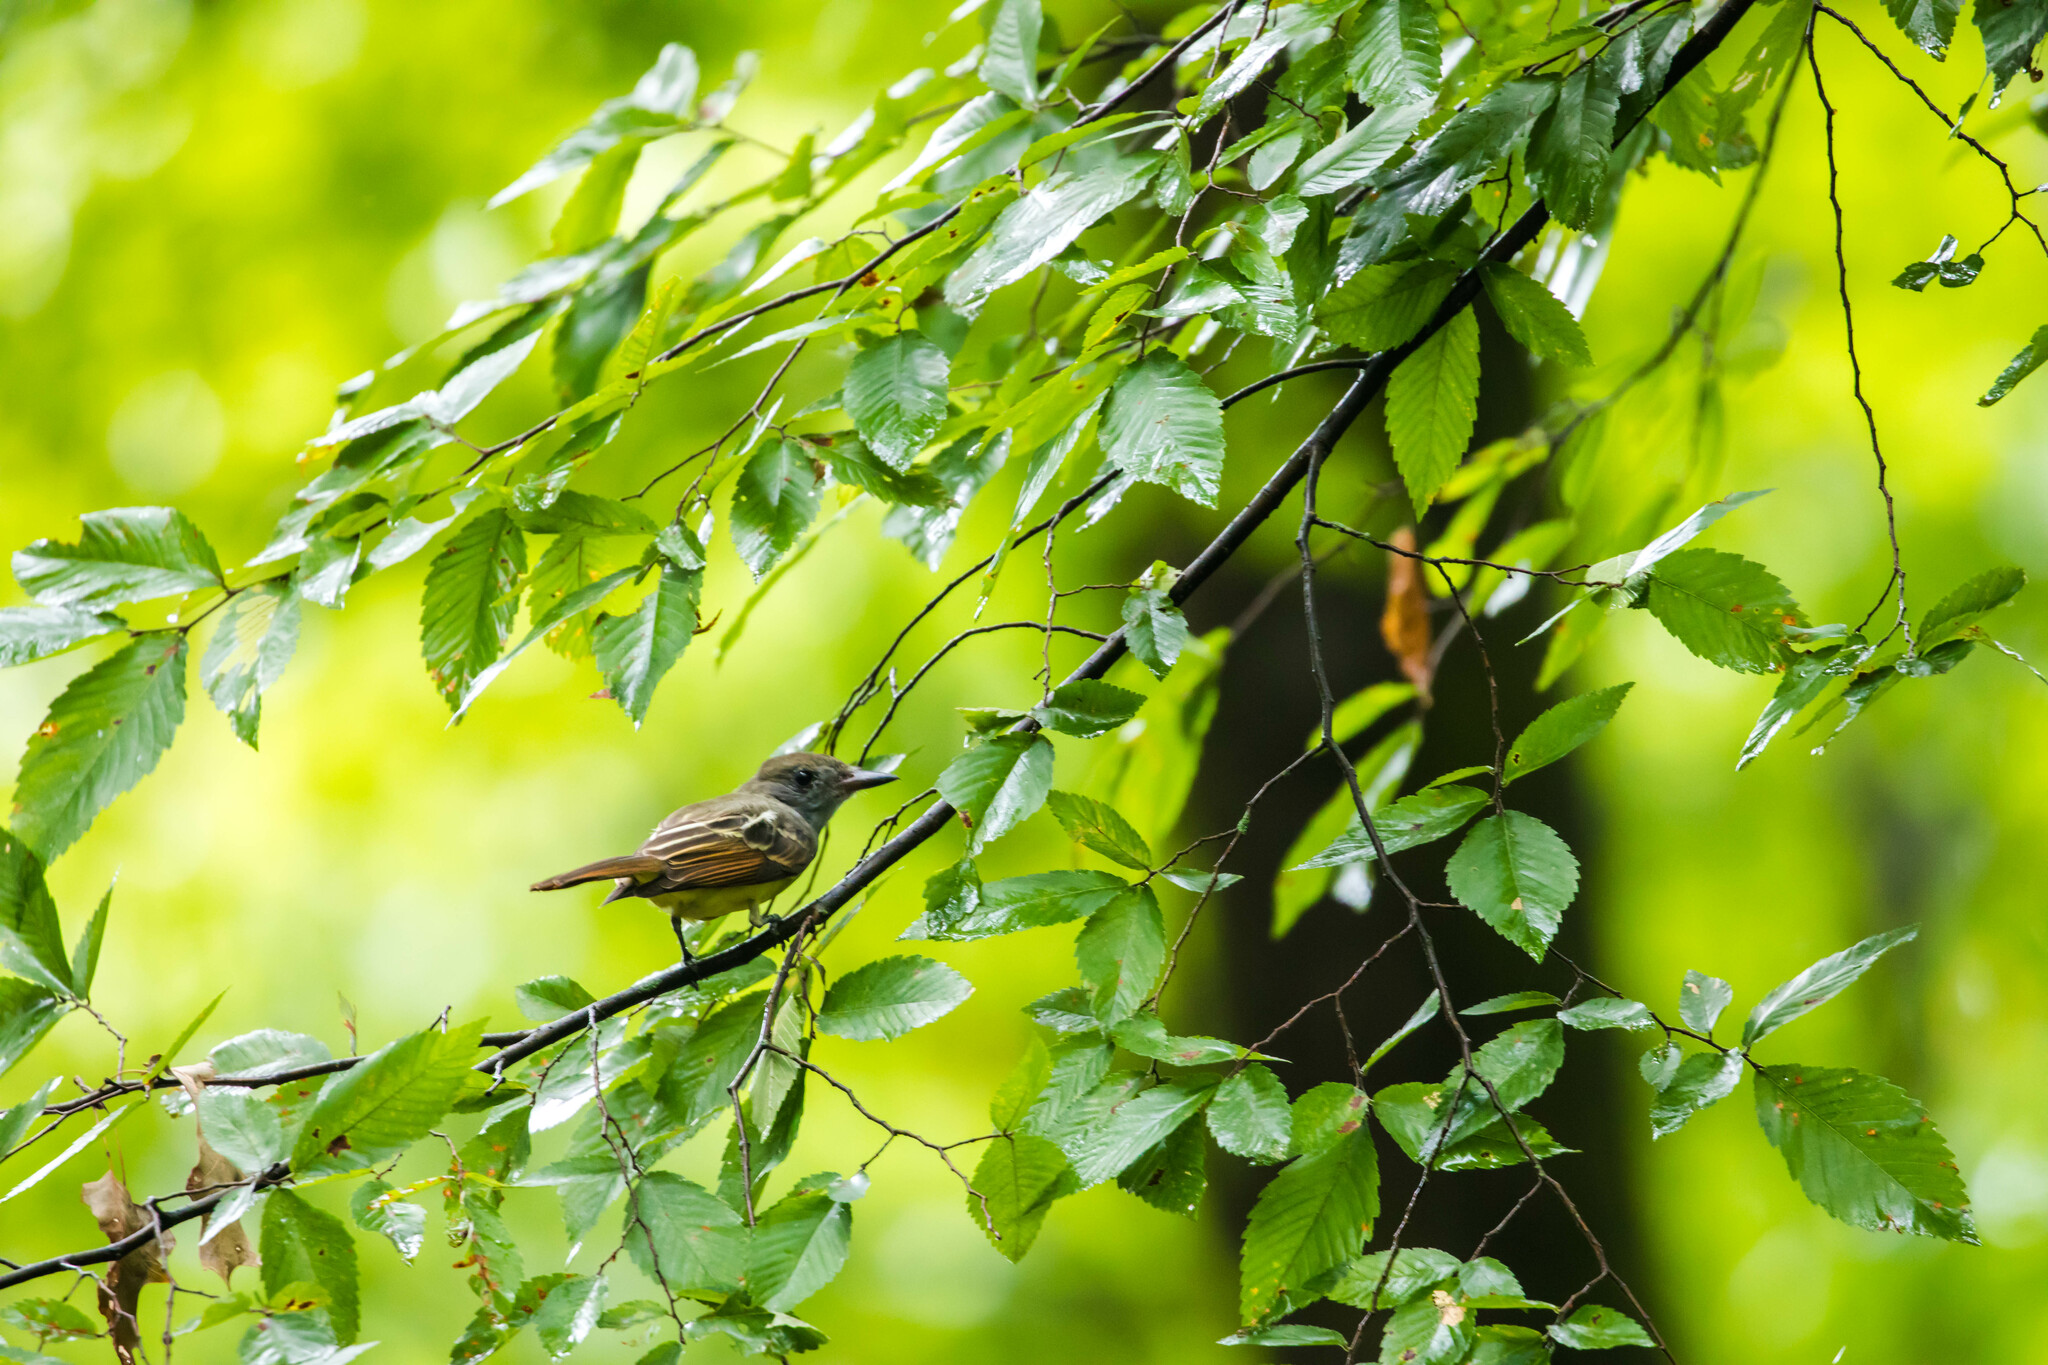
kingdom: Animalia
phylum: Chordata
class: Aves
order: Passeriformes
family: Tyrannidae
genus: Myiarchus
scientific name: Myiarchus crinitus
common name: Great crested flycatcher
